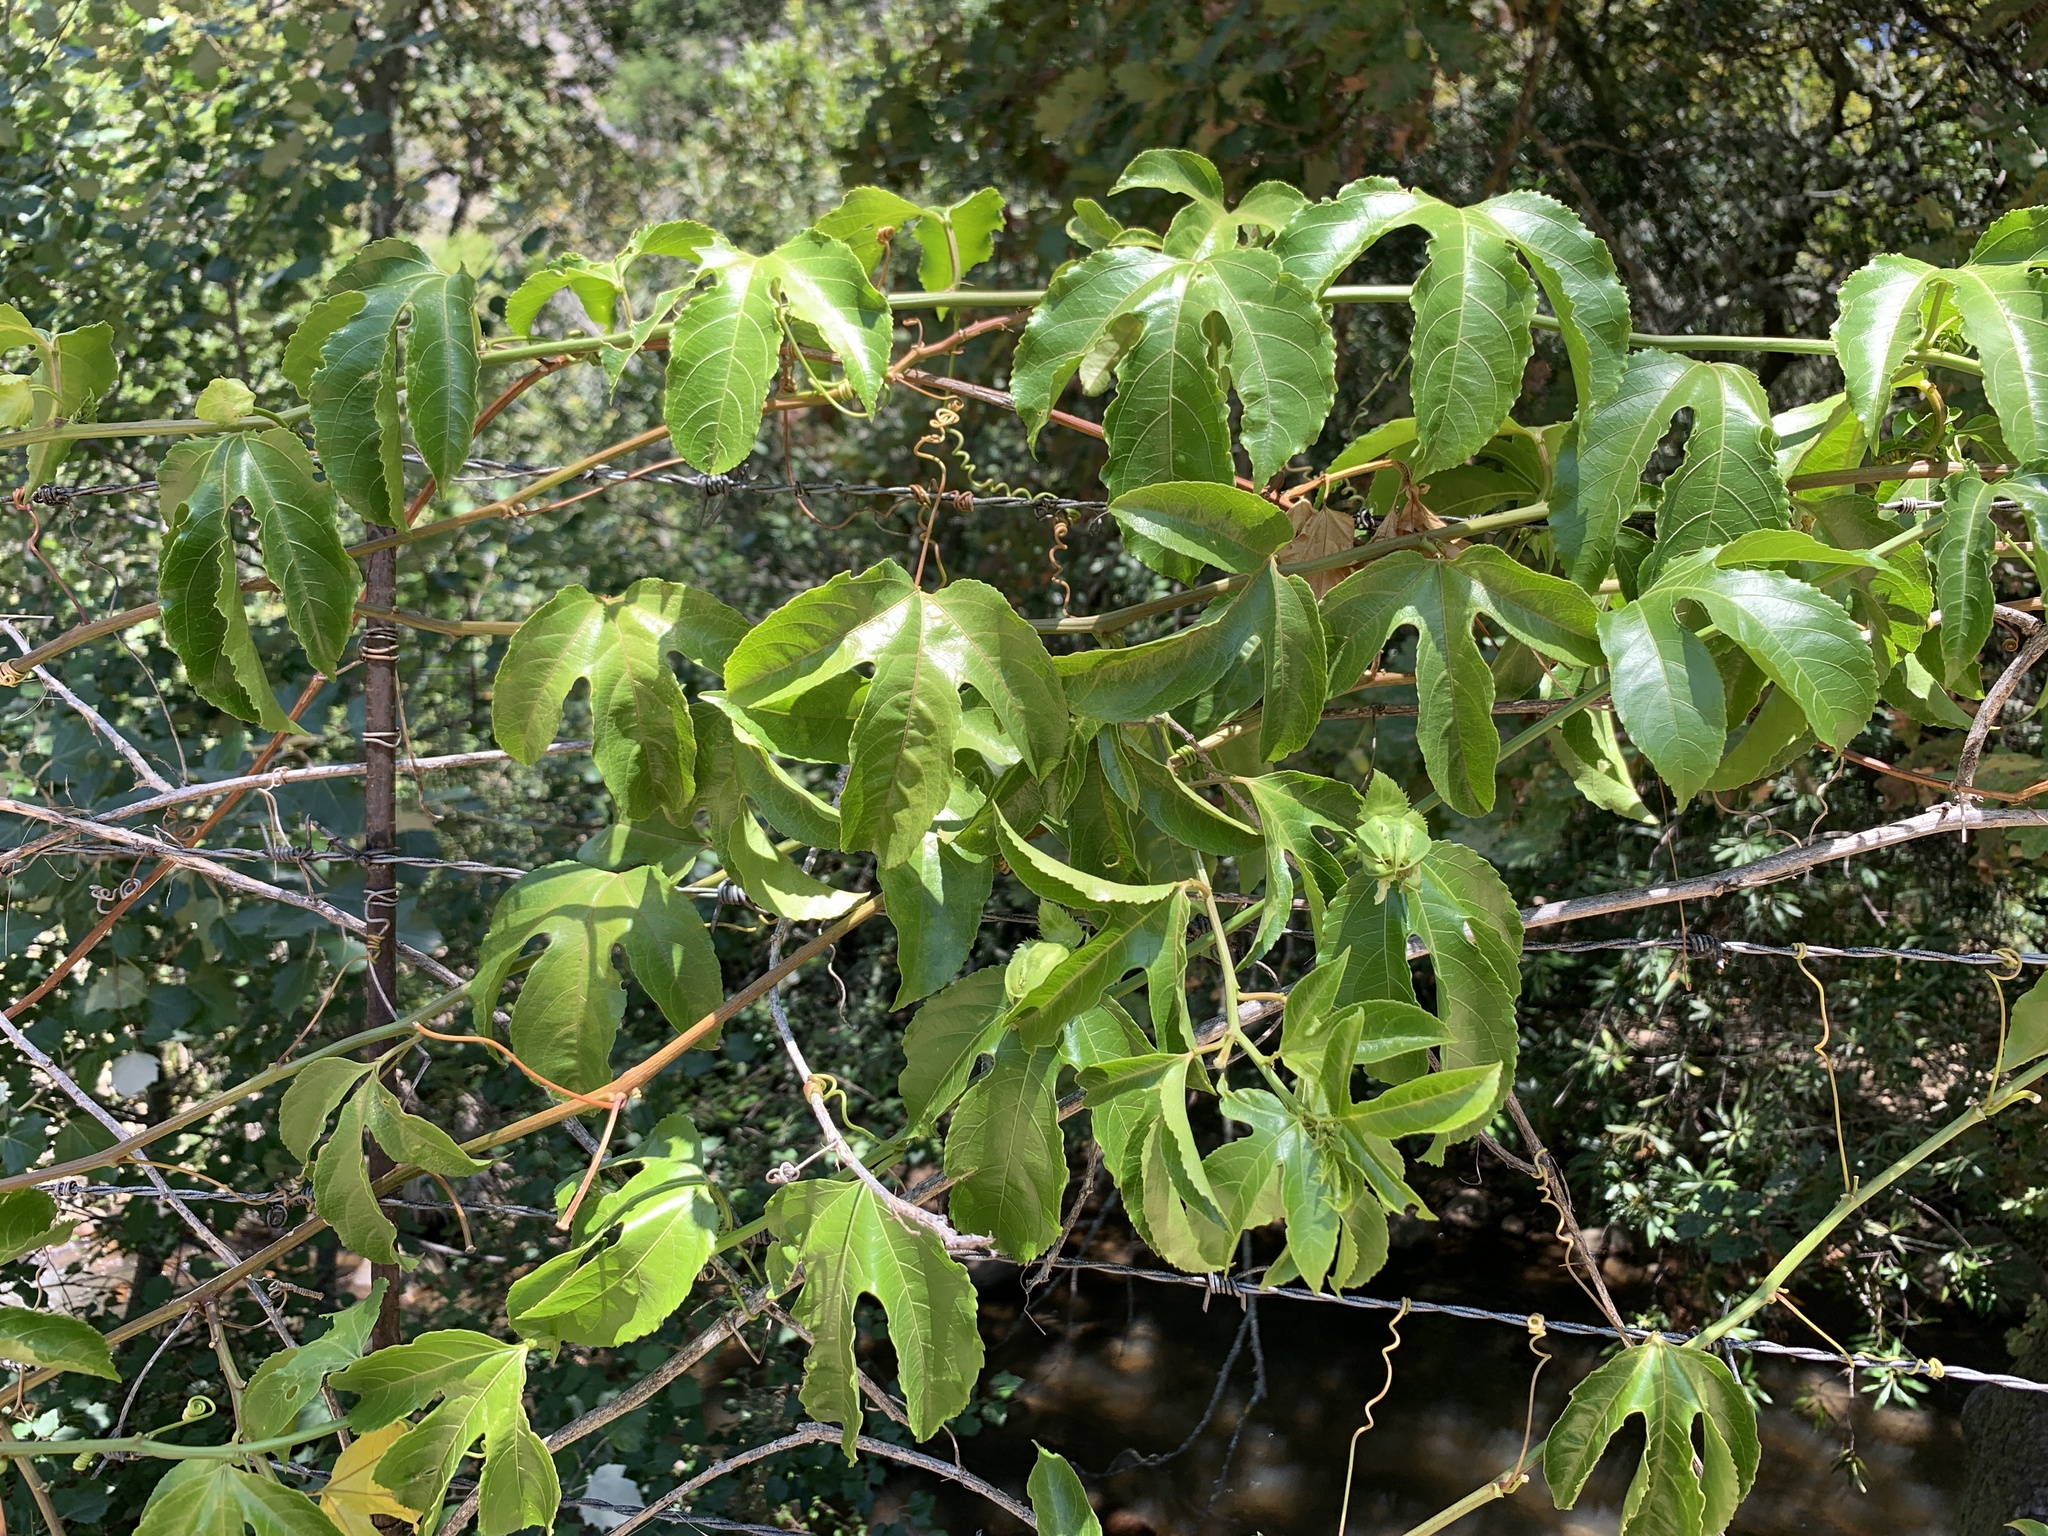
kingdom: Plantae
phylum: Tracheophyta
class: Magnoliopsida
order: Malpighiales
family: Passifloraceae
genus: Passiflora
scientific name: Passiflora edulis
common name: Purple granadilla
